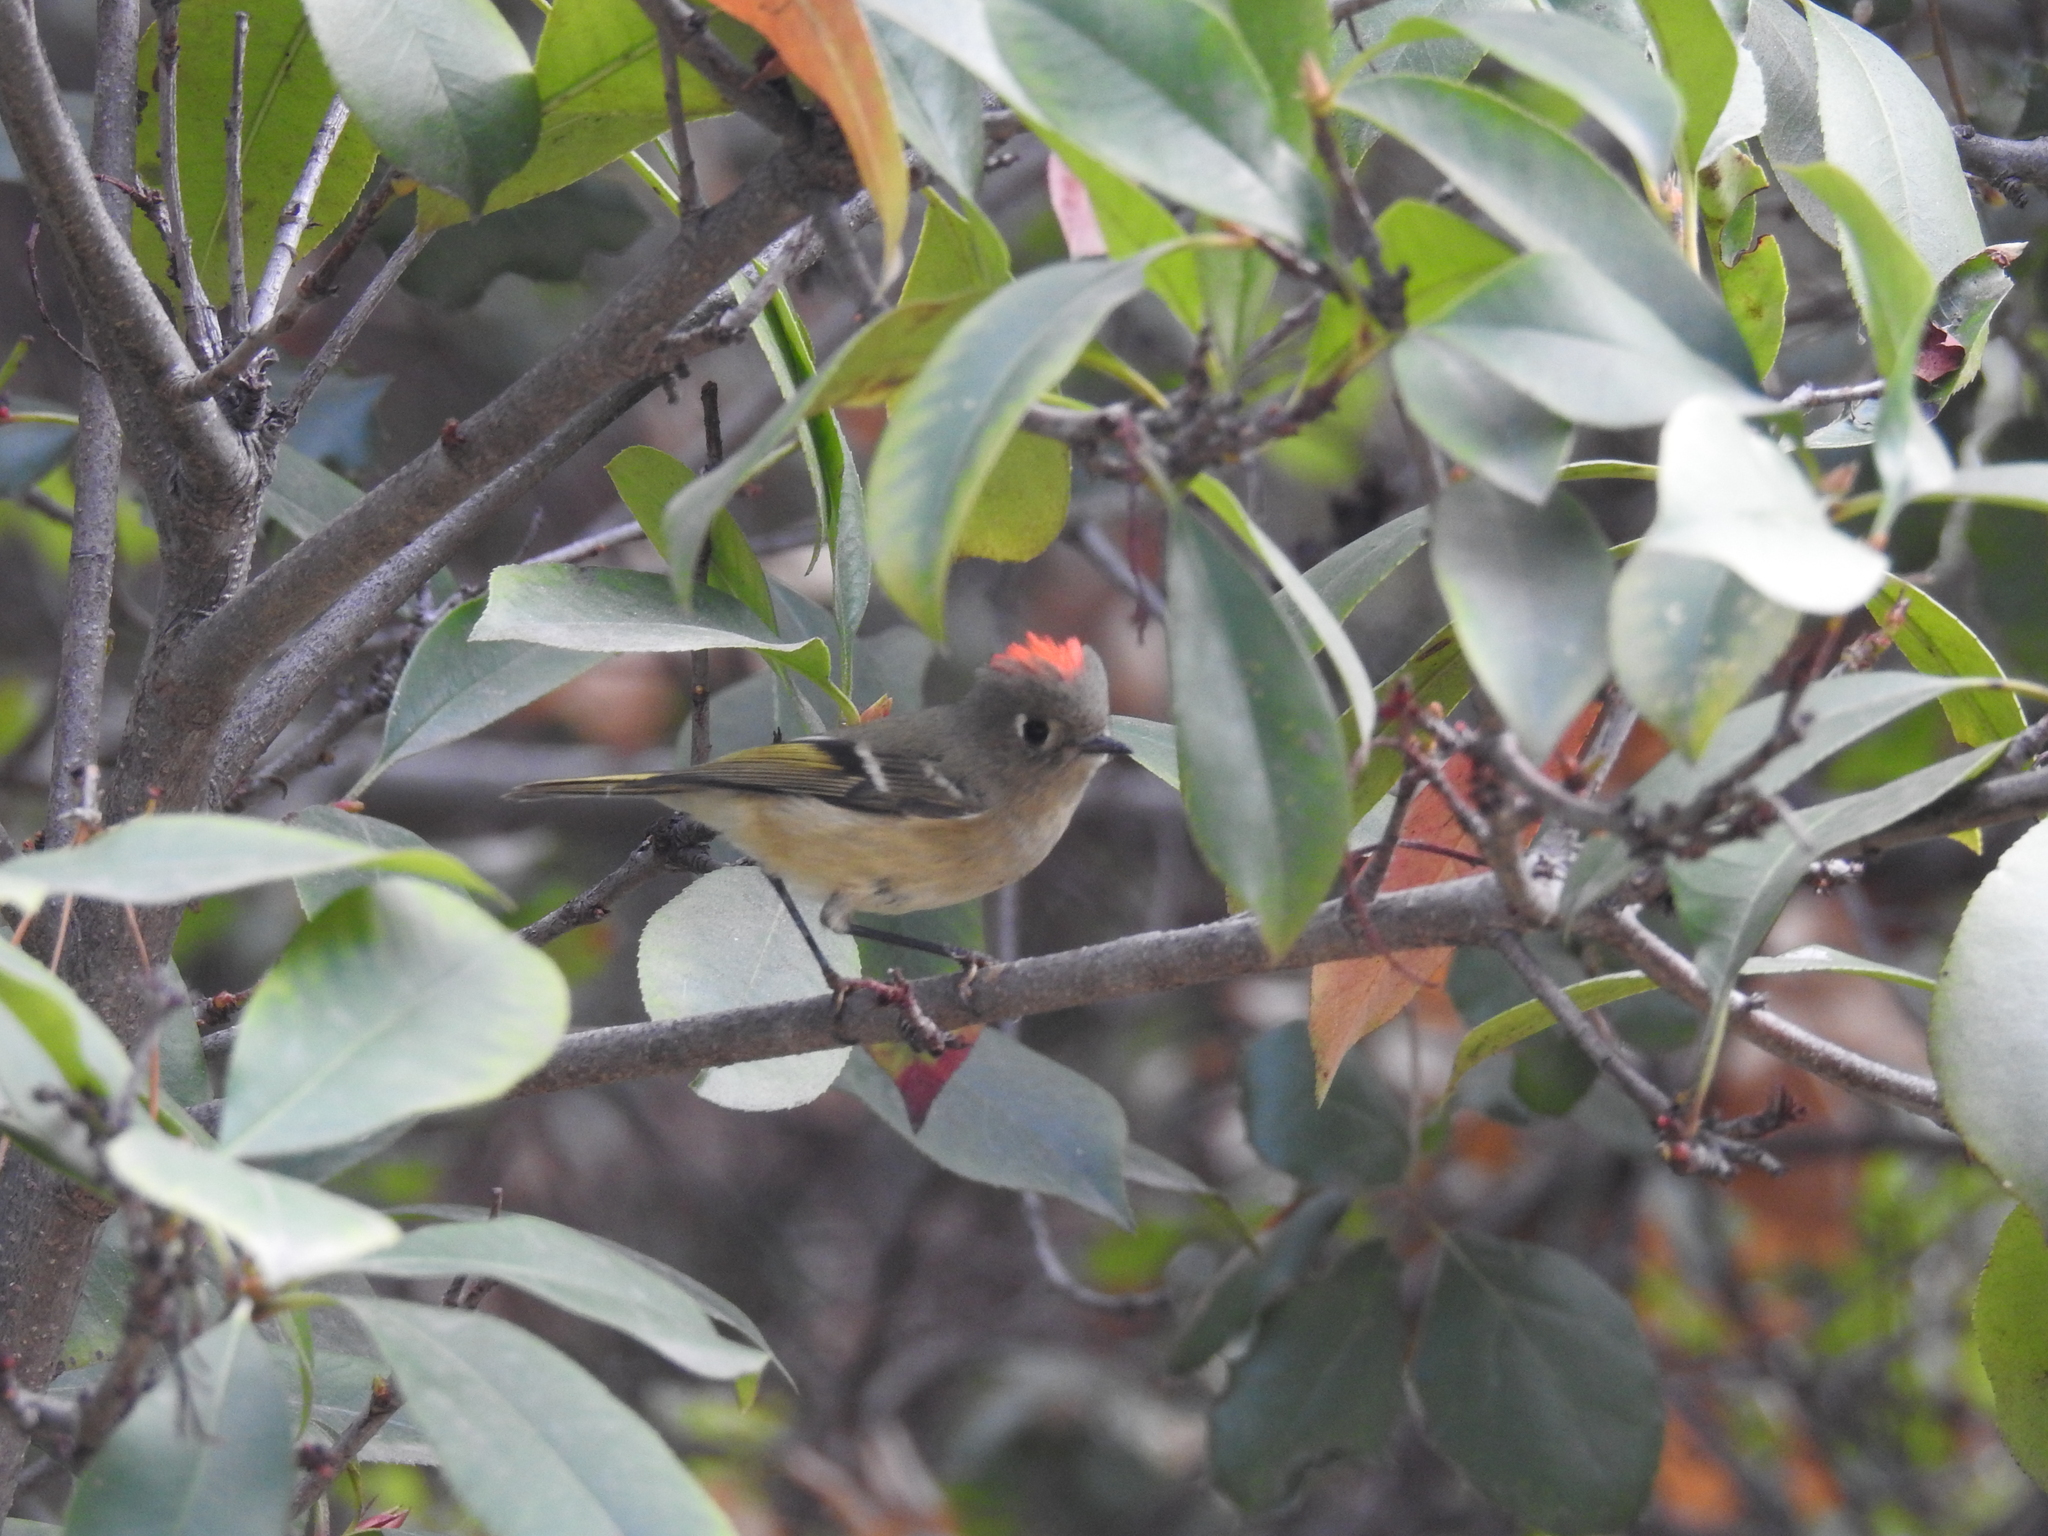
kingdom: Animalia
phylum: Chordata
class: Aves
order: Passeriformes
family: Regulidae
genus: Regulus
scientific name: Regulus calendula
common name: Ruby-crowned kinglet
